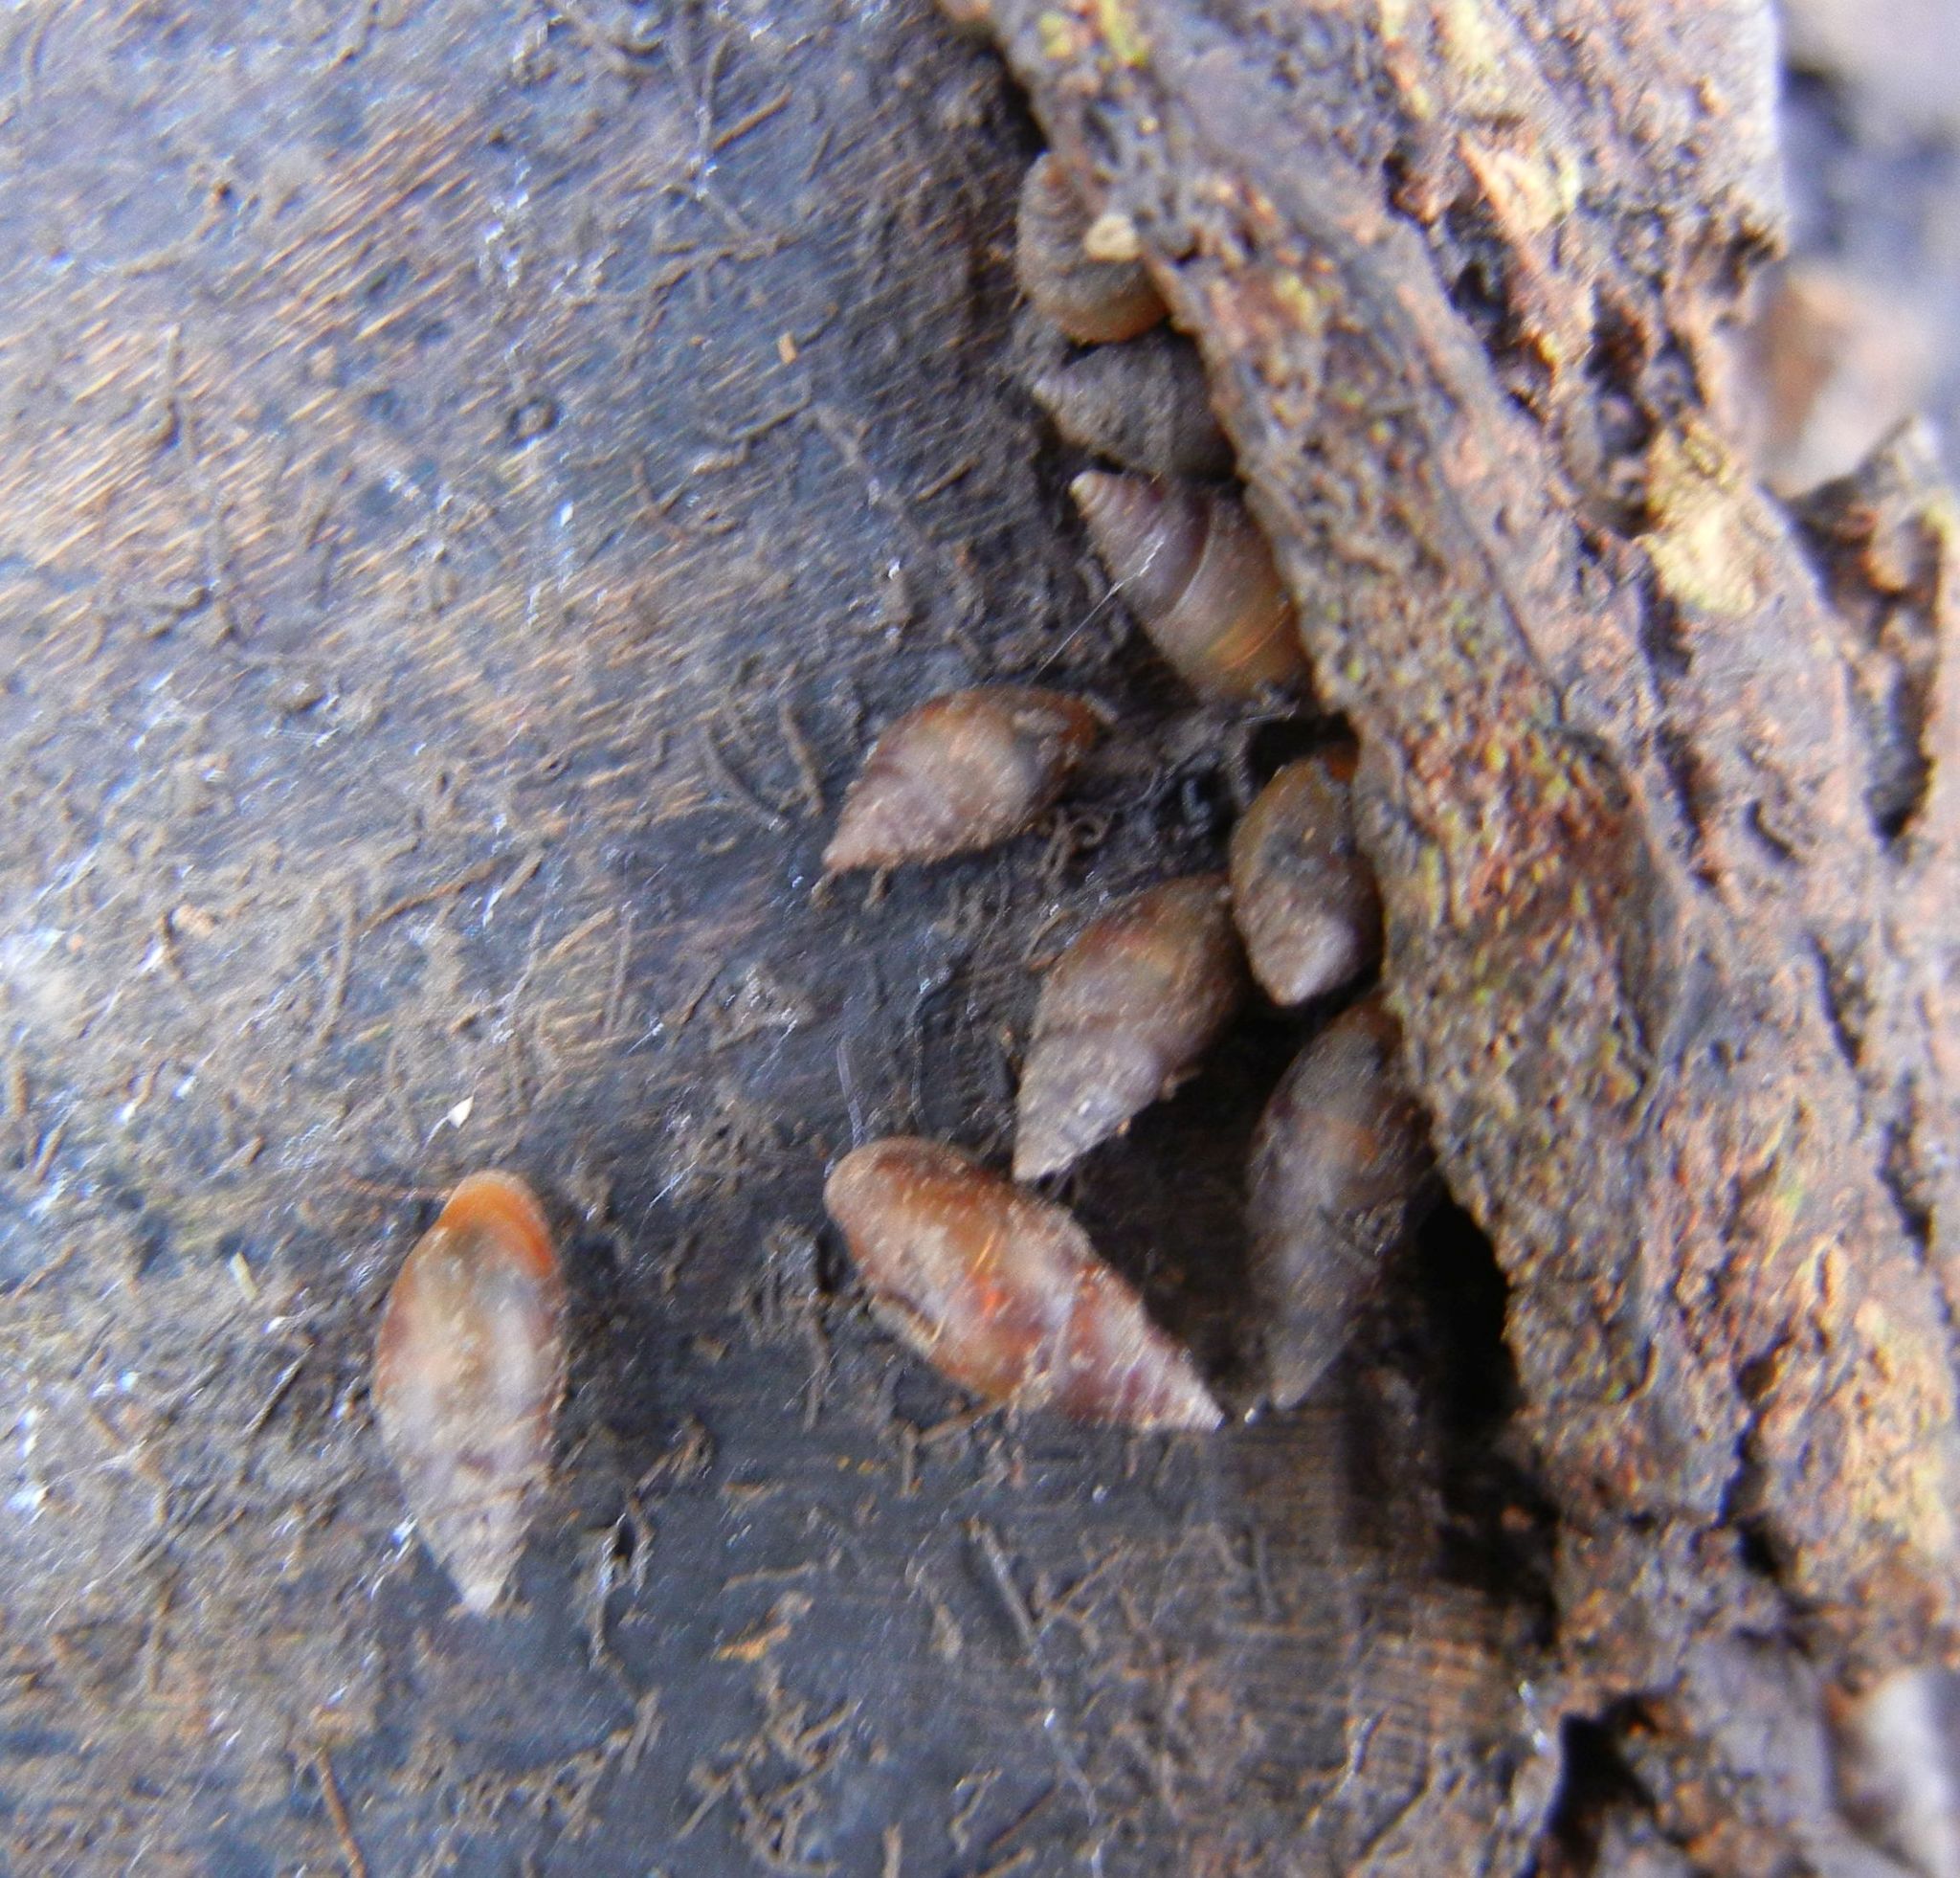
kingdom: Animalia
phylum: Mollusca
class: Gastropoda
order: Ellobiida
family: Ellobiidae
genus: Myosotella
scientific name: Myosotella myosotis
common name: Mouse-eared snail
